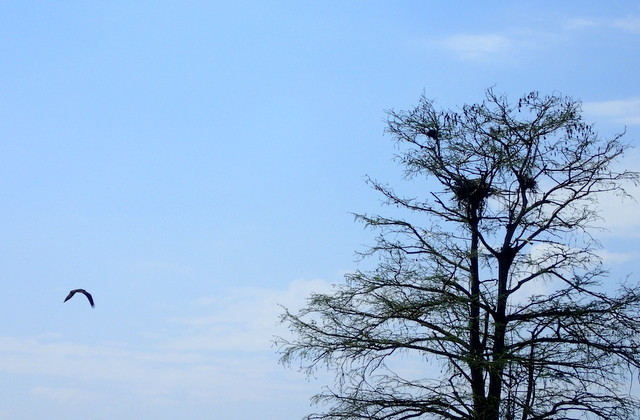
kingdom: Animalia
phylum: Chordata
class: Aves
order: Accipitriformes
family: Pandionidae
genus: Pandion
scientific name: Pandion haliaetus
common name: Osprey
